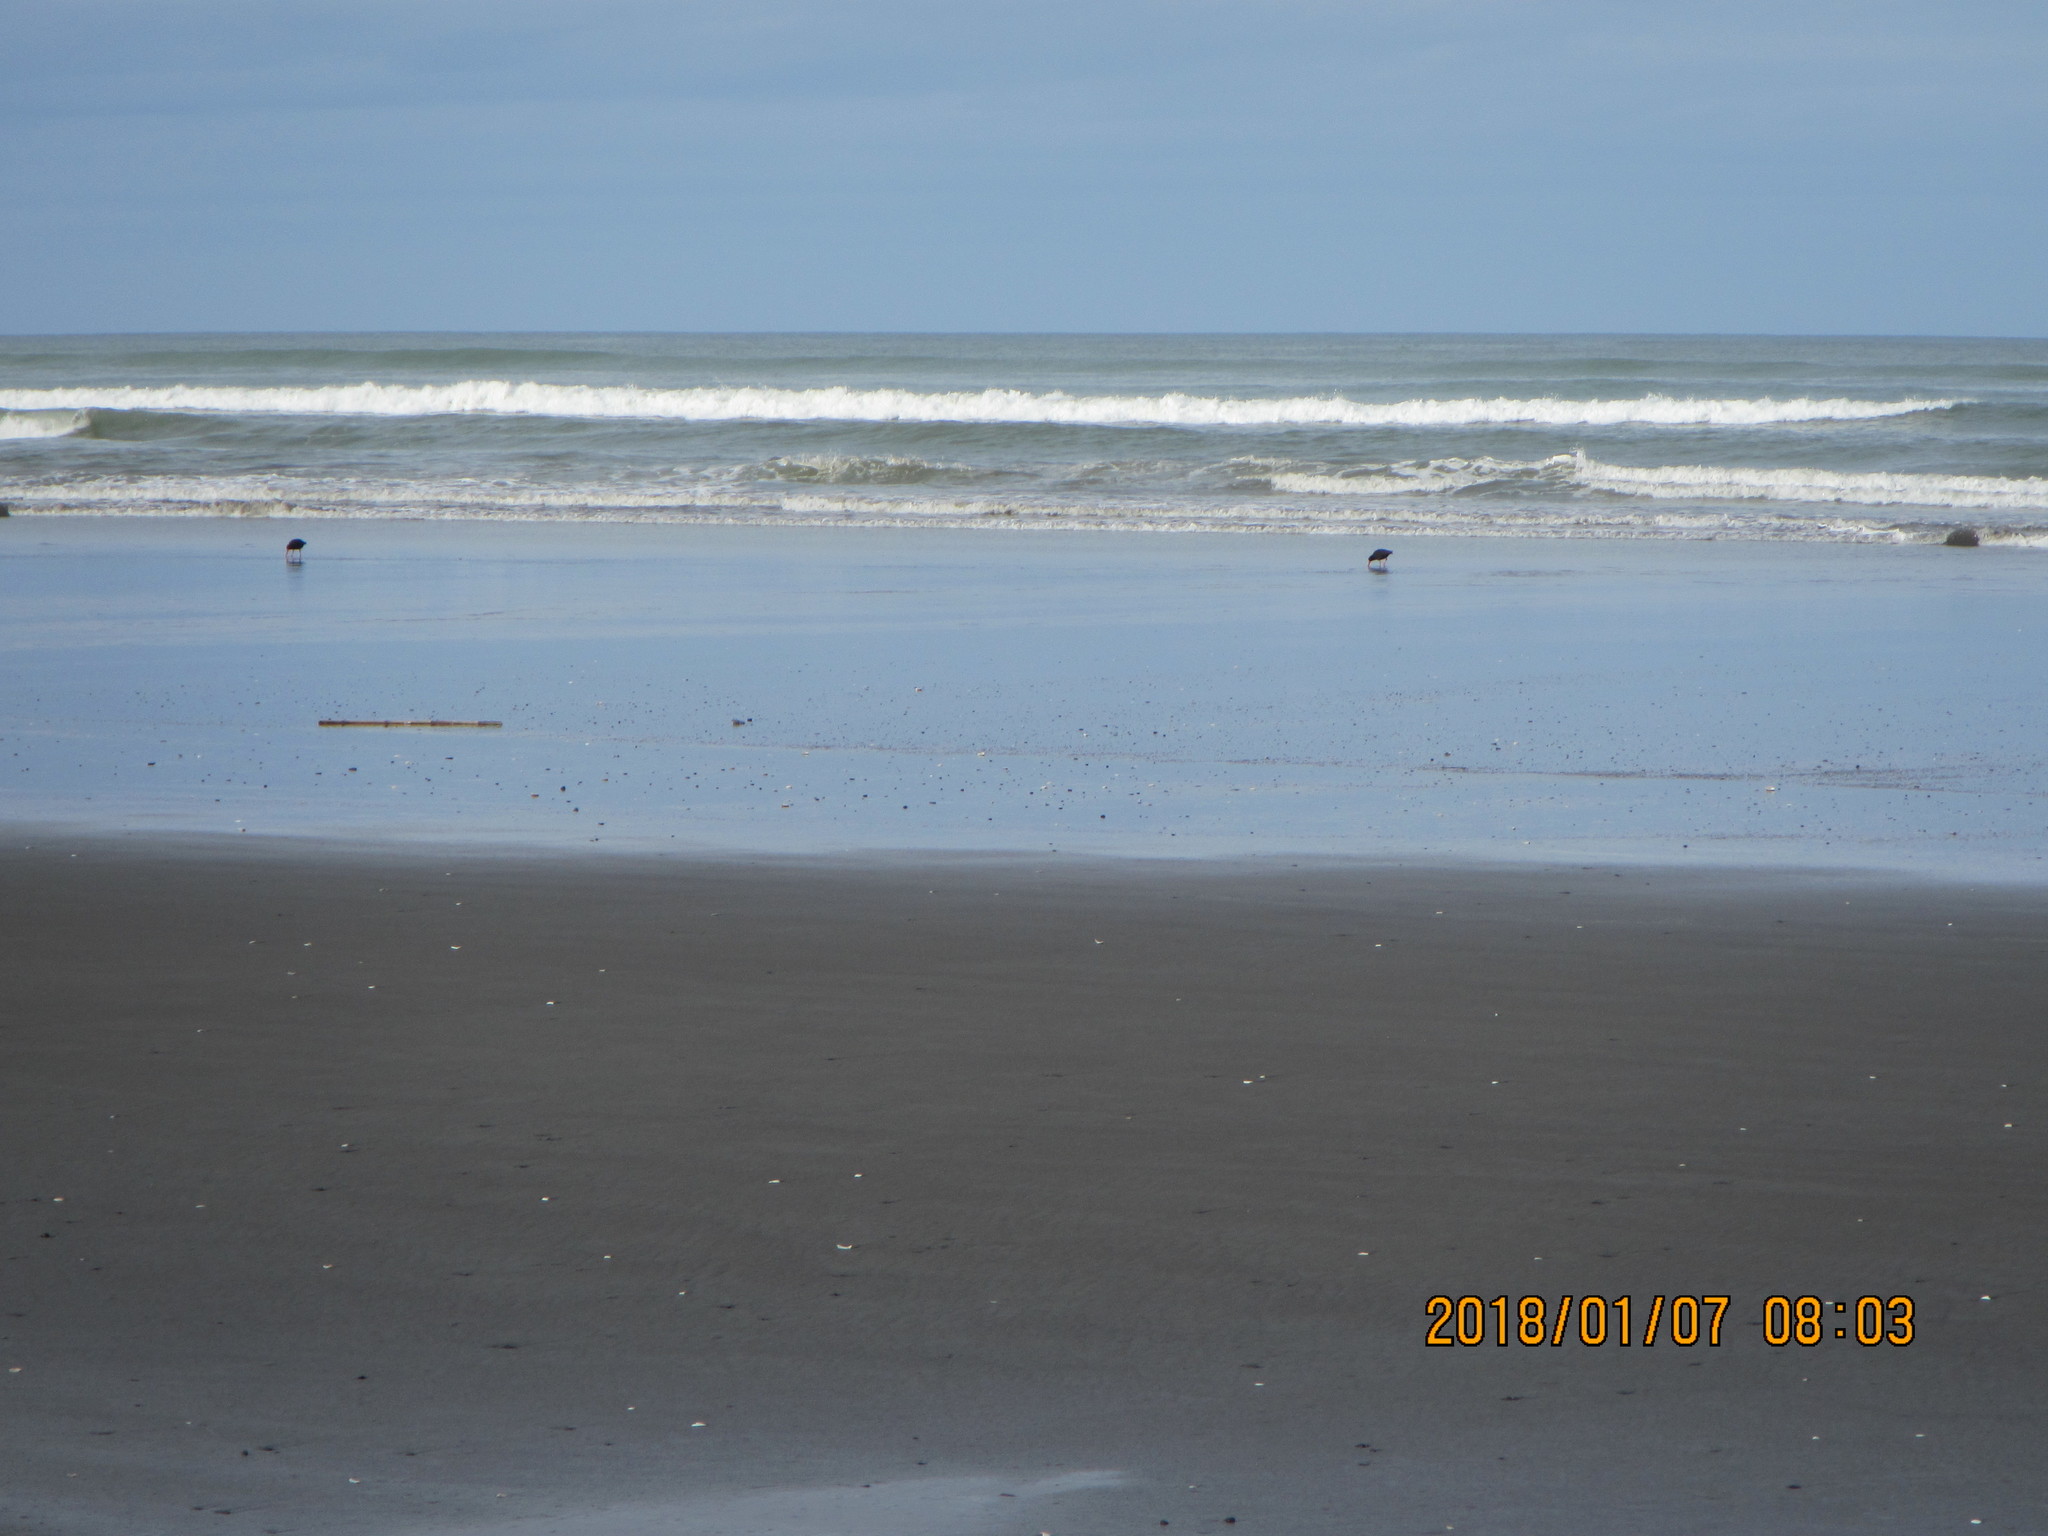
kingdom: Animalia
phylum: Chordata
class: Aves
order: Charadriiformes
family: Haematopodidae
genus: Haematopus
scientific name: Haematopus unicolor
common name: Variable oystercatcher
